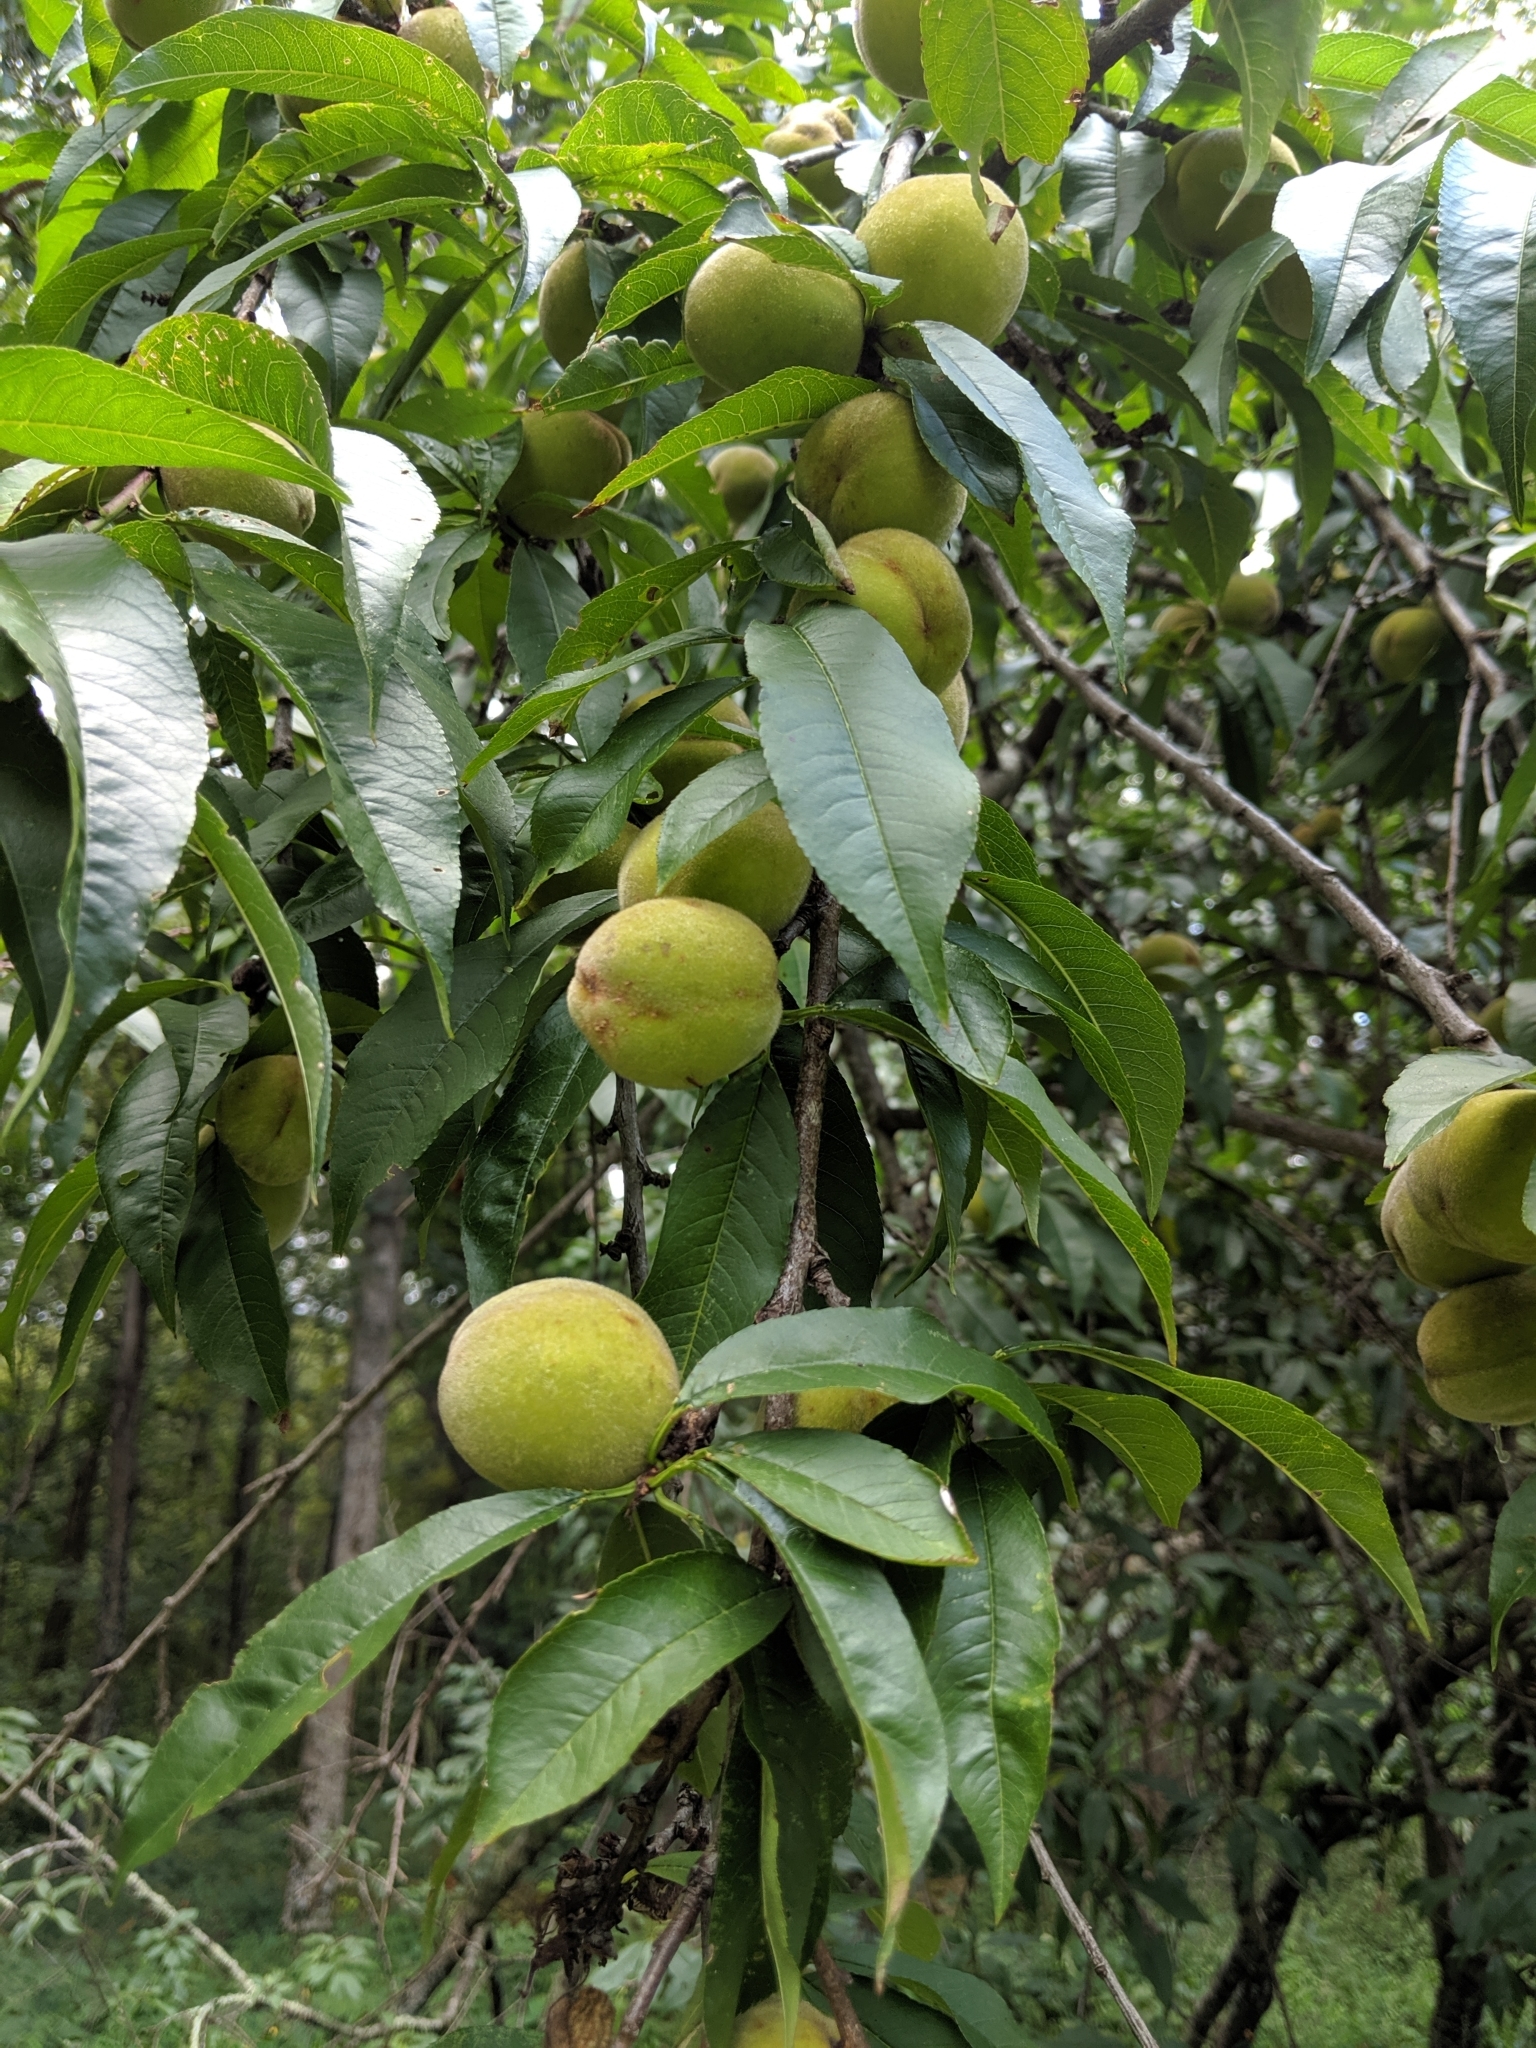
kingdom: Plantae
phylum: Tracheophyta
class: Magnoliopsida
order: Rosales
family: Rosaceae
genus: Prunus
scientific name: Prunus persica
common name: Peach
